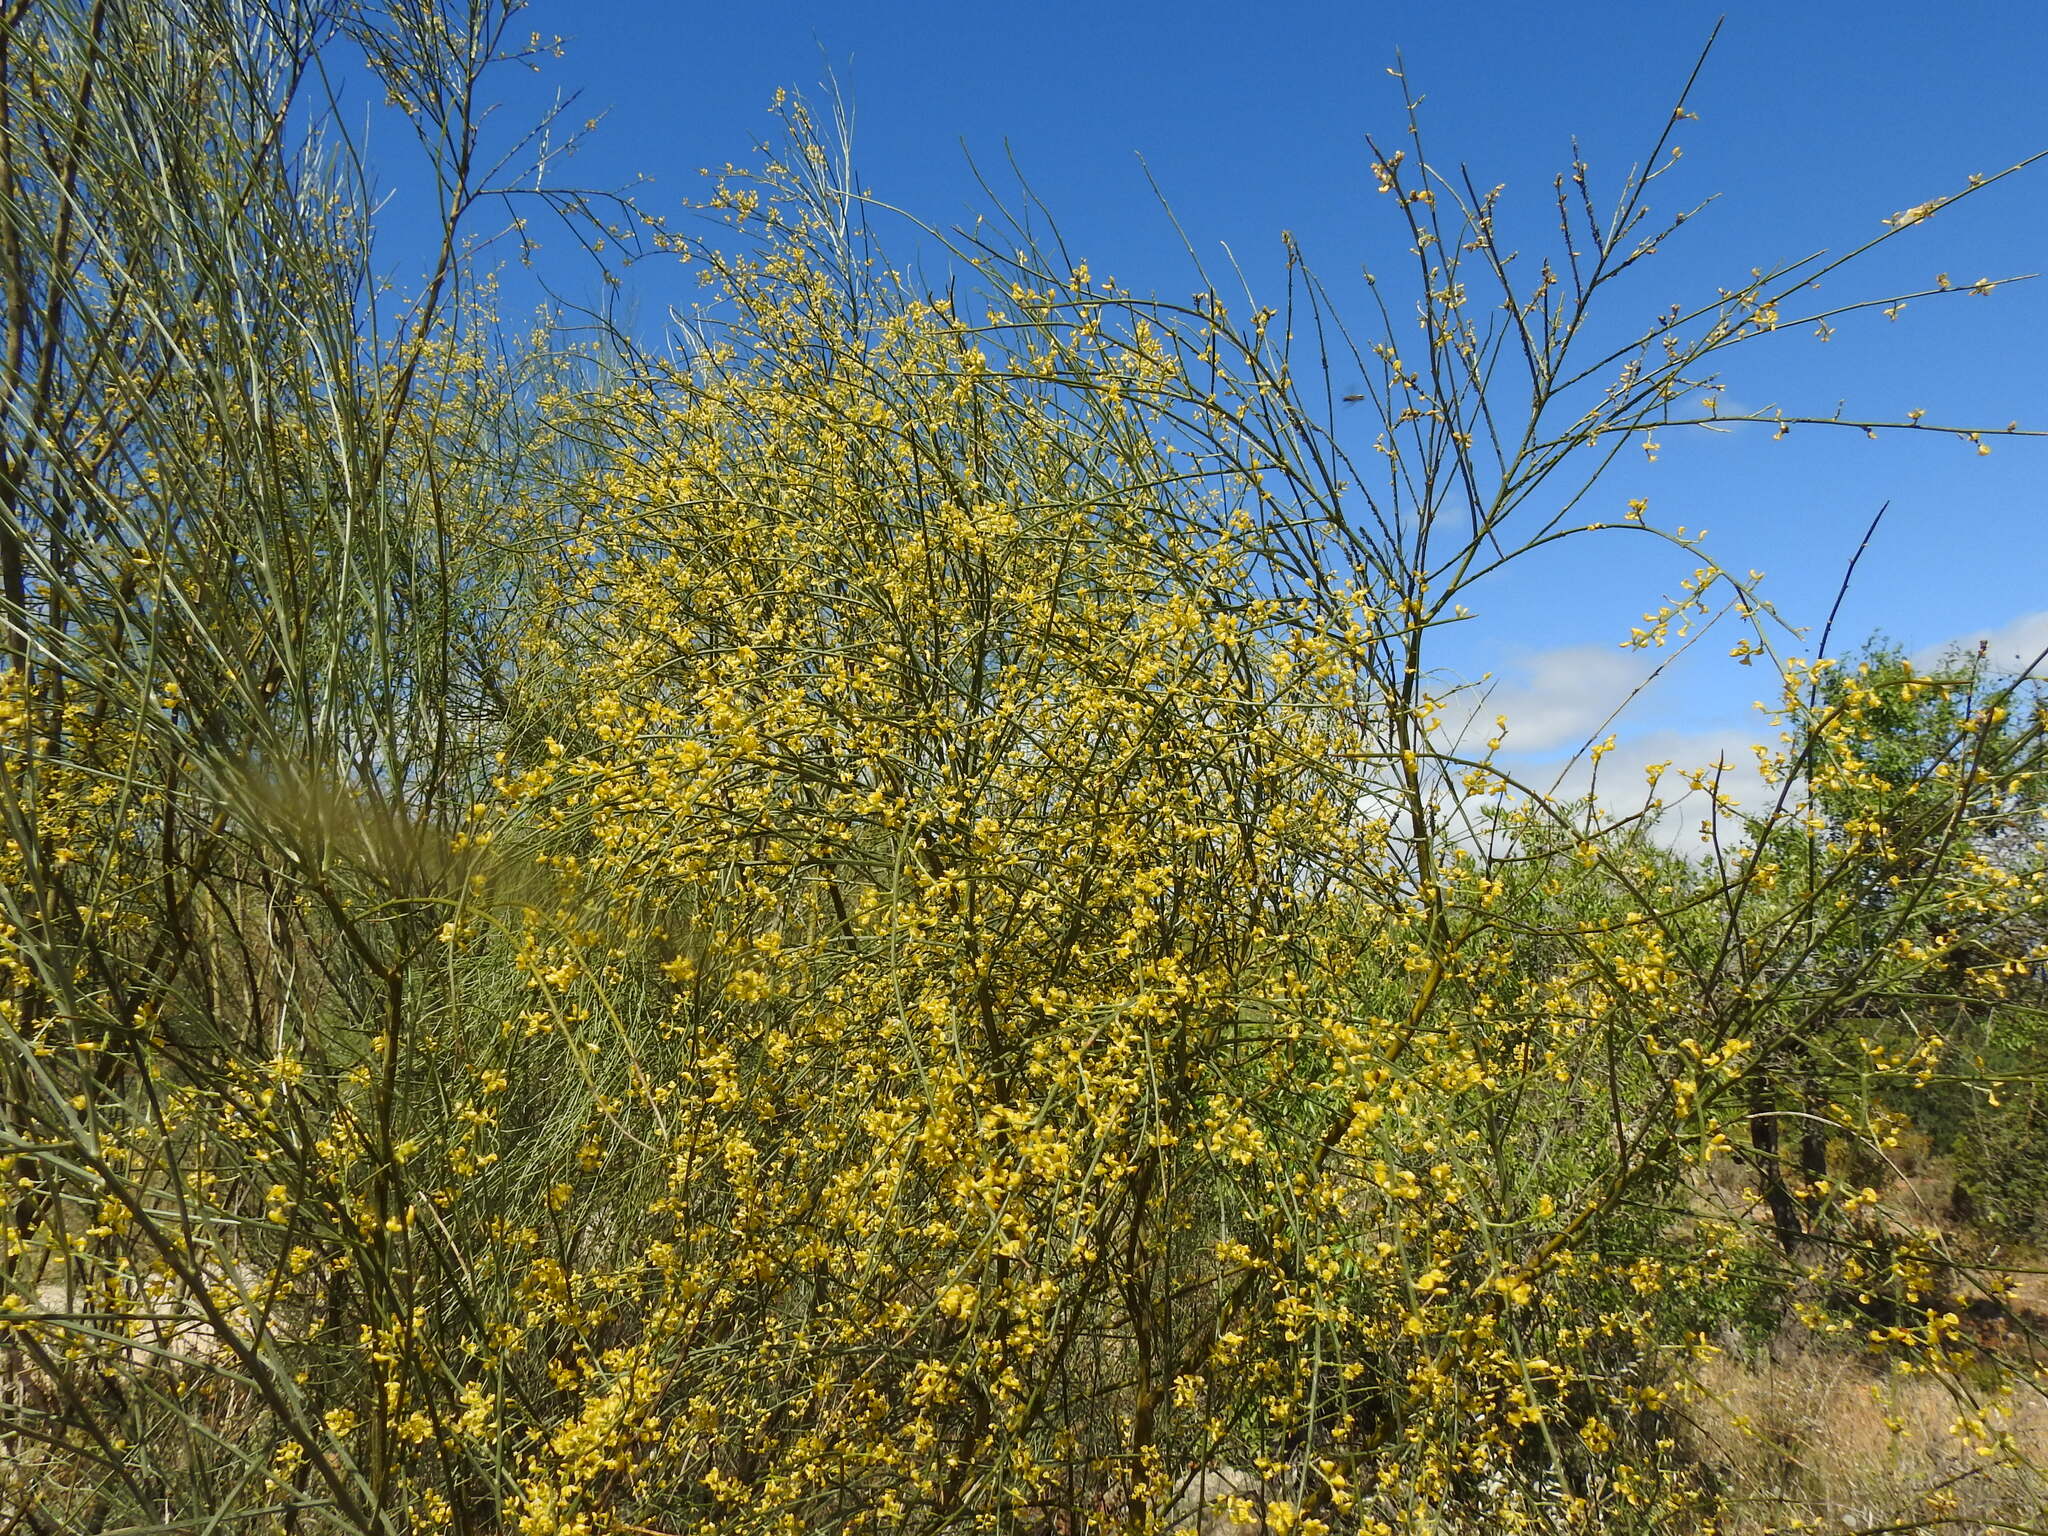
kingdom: Plantae
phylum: Tracheophyta
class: Magnoliopsida
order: Fabales
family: Fabaceae
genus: Retama
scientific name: Retama sphaerocarpa
